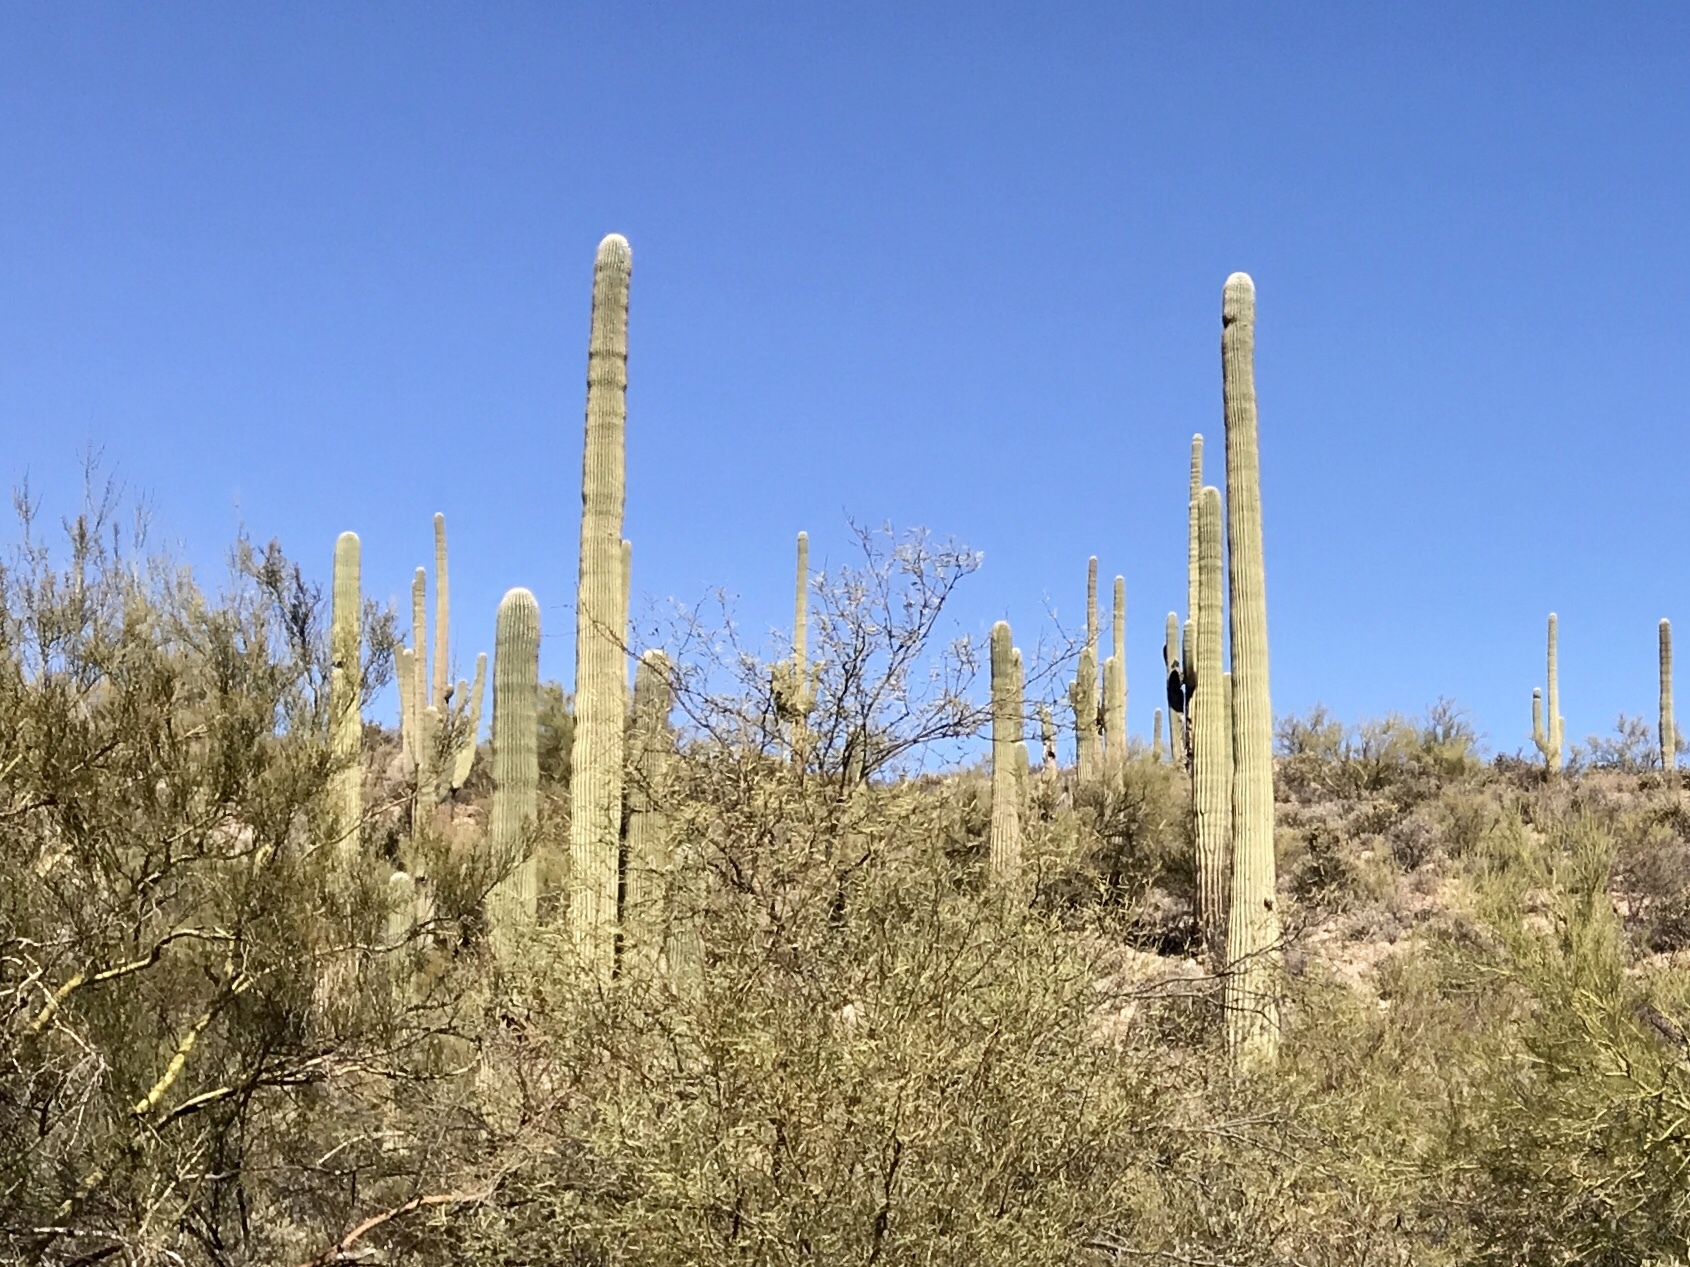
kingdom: Plantae
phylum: Tracheophyta
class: Magnoliopsida
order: Caryophyllales
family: Cactaceae
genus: Carnegiea
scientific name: Carnegiea gigantea
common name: Saguaro
